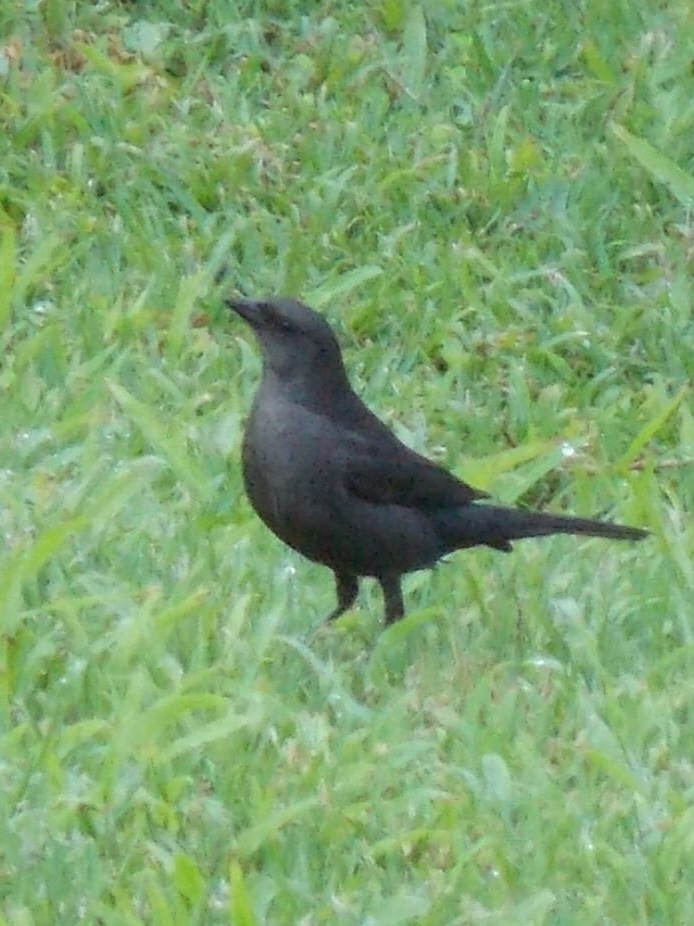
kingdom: Animalia
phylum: Chordata
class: Aves
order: Passeriformes
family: Icteridae
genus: Molothrus
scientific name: Molothrus bonariensis
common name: Shiny cowbird
